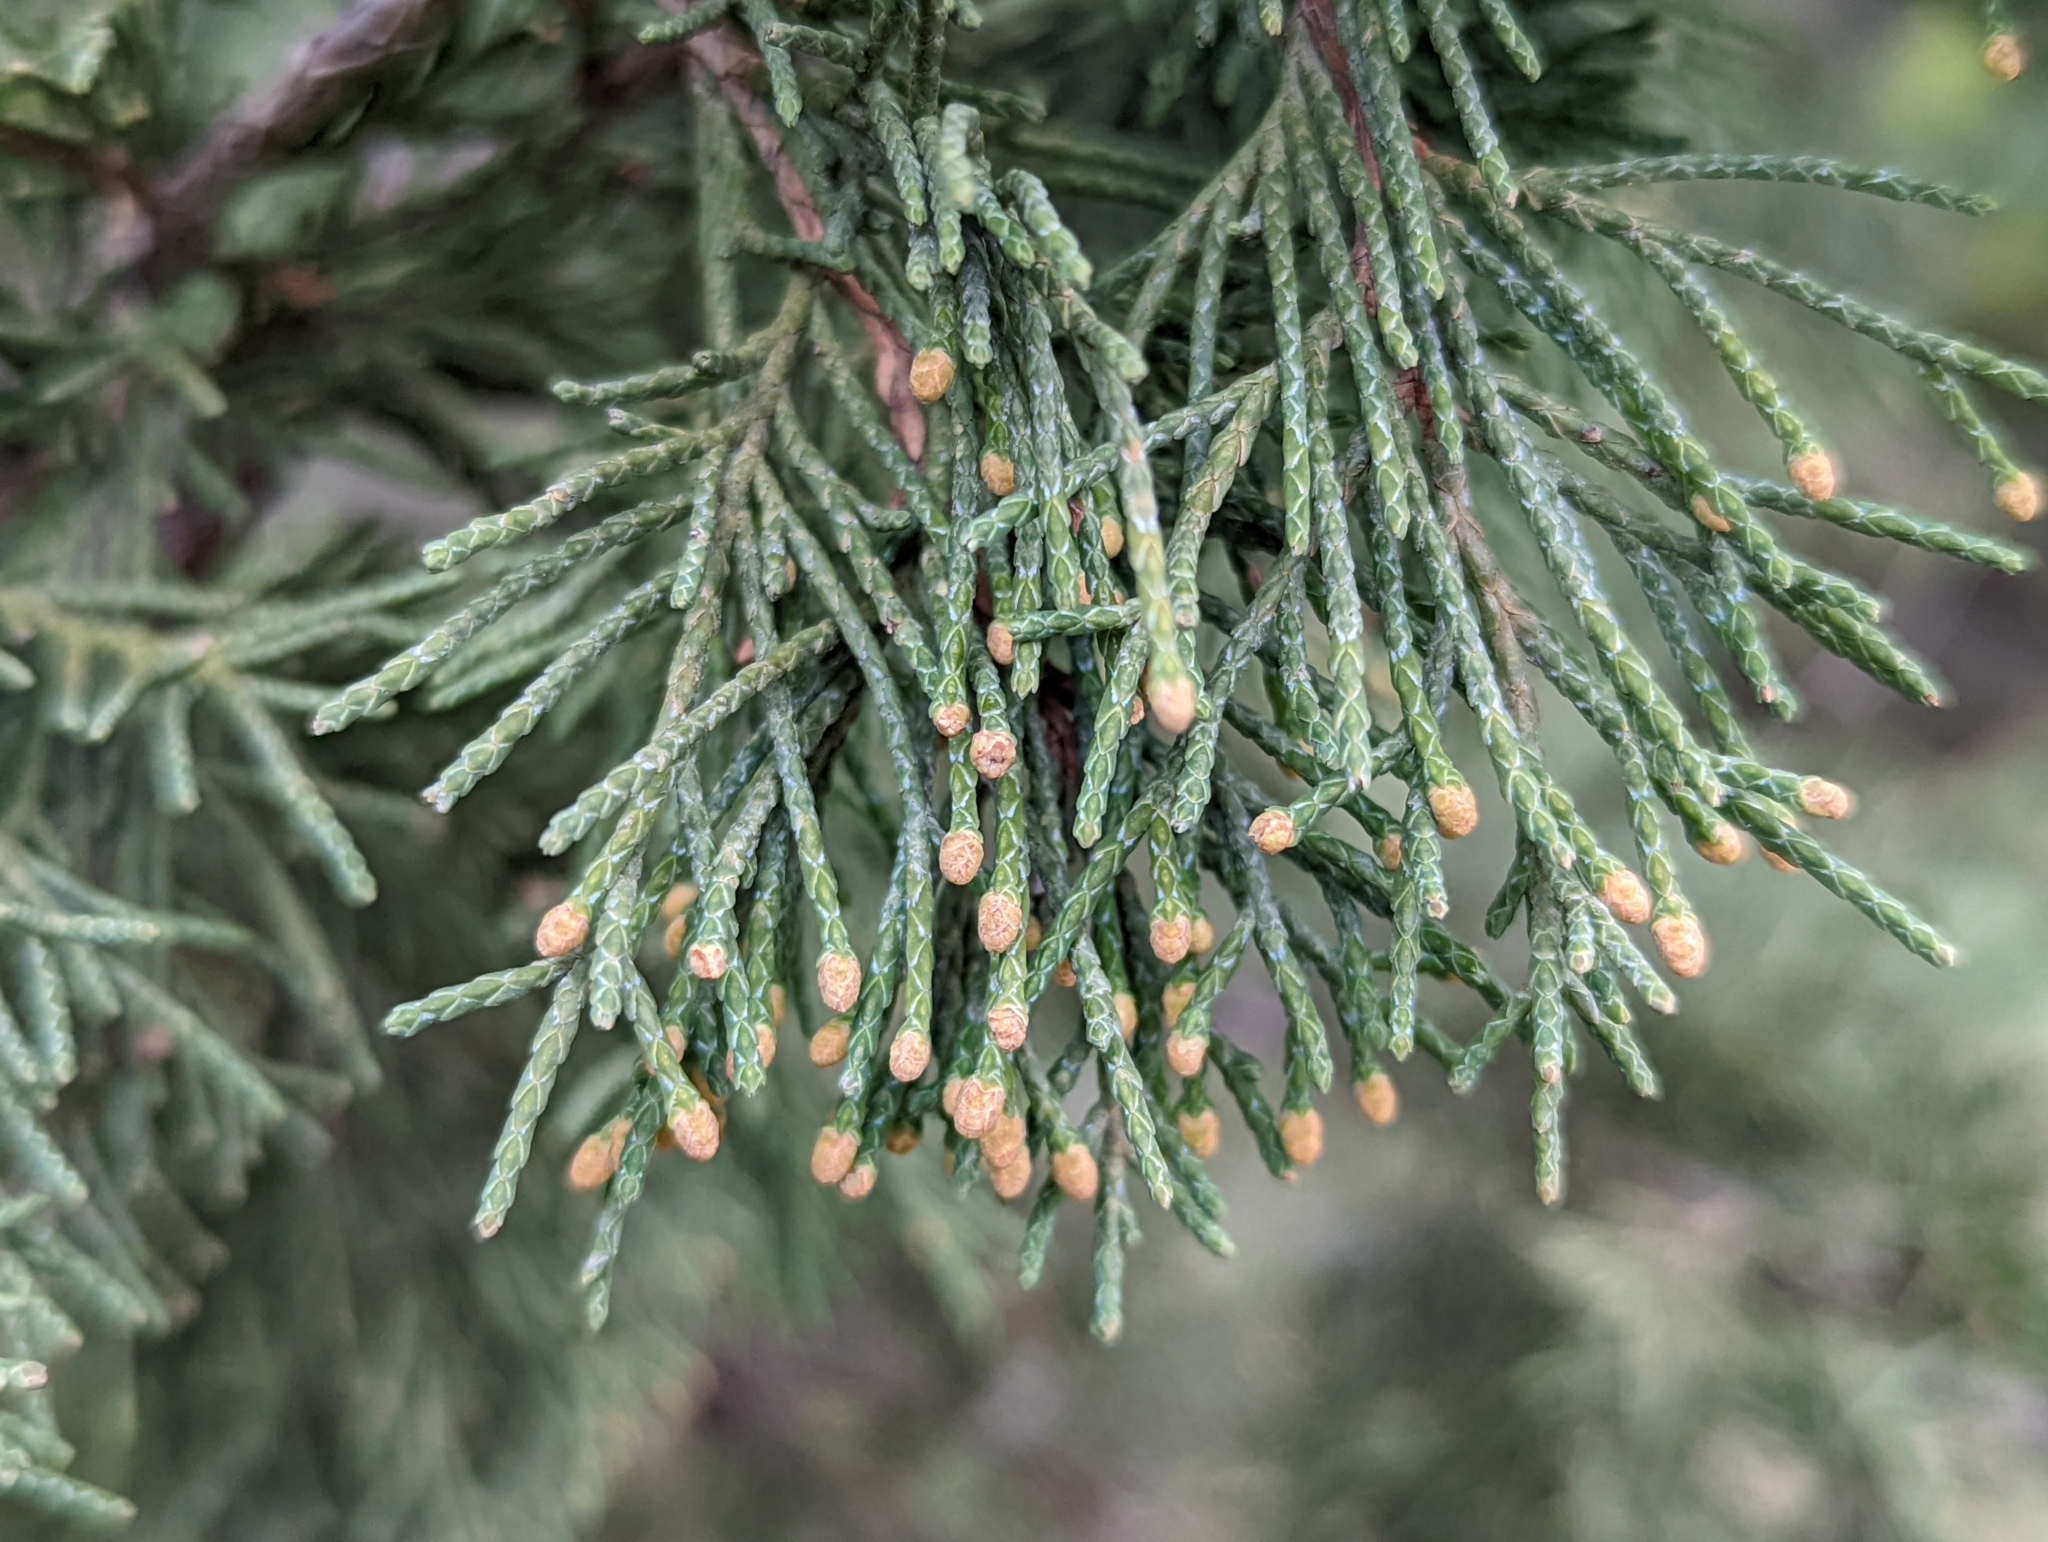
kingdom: Plantae
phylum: Tracheophyta
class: Pinopsida
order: Pinales
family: Cupressaceae
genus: Juniperus
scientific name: Juniperus scopulorum
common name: Rocky mountain juniper
